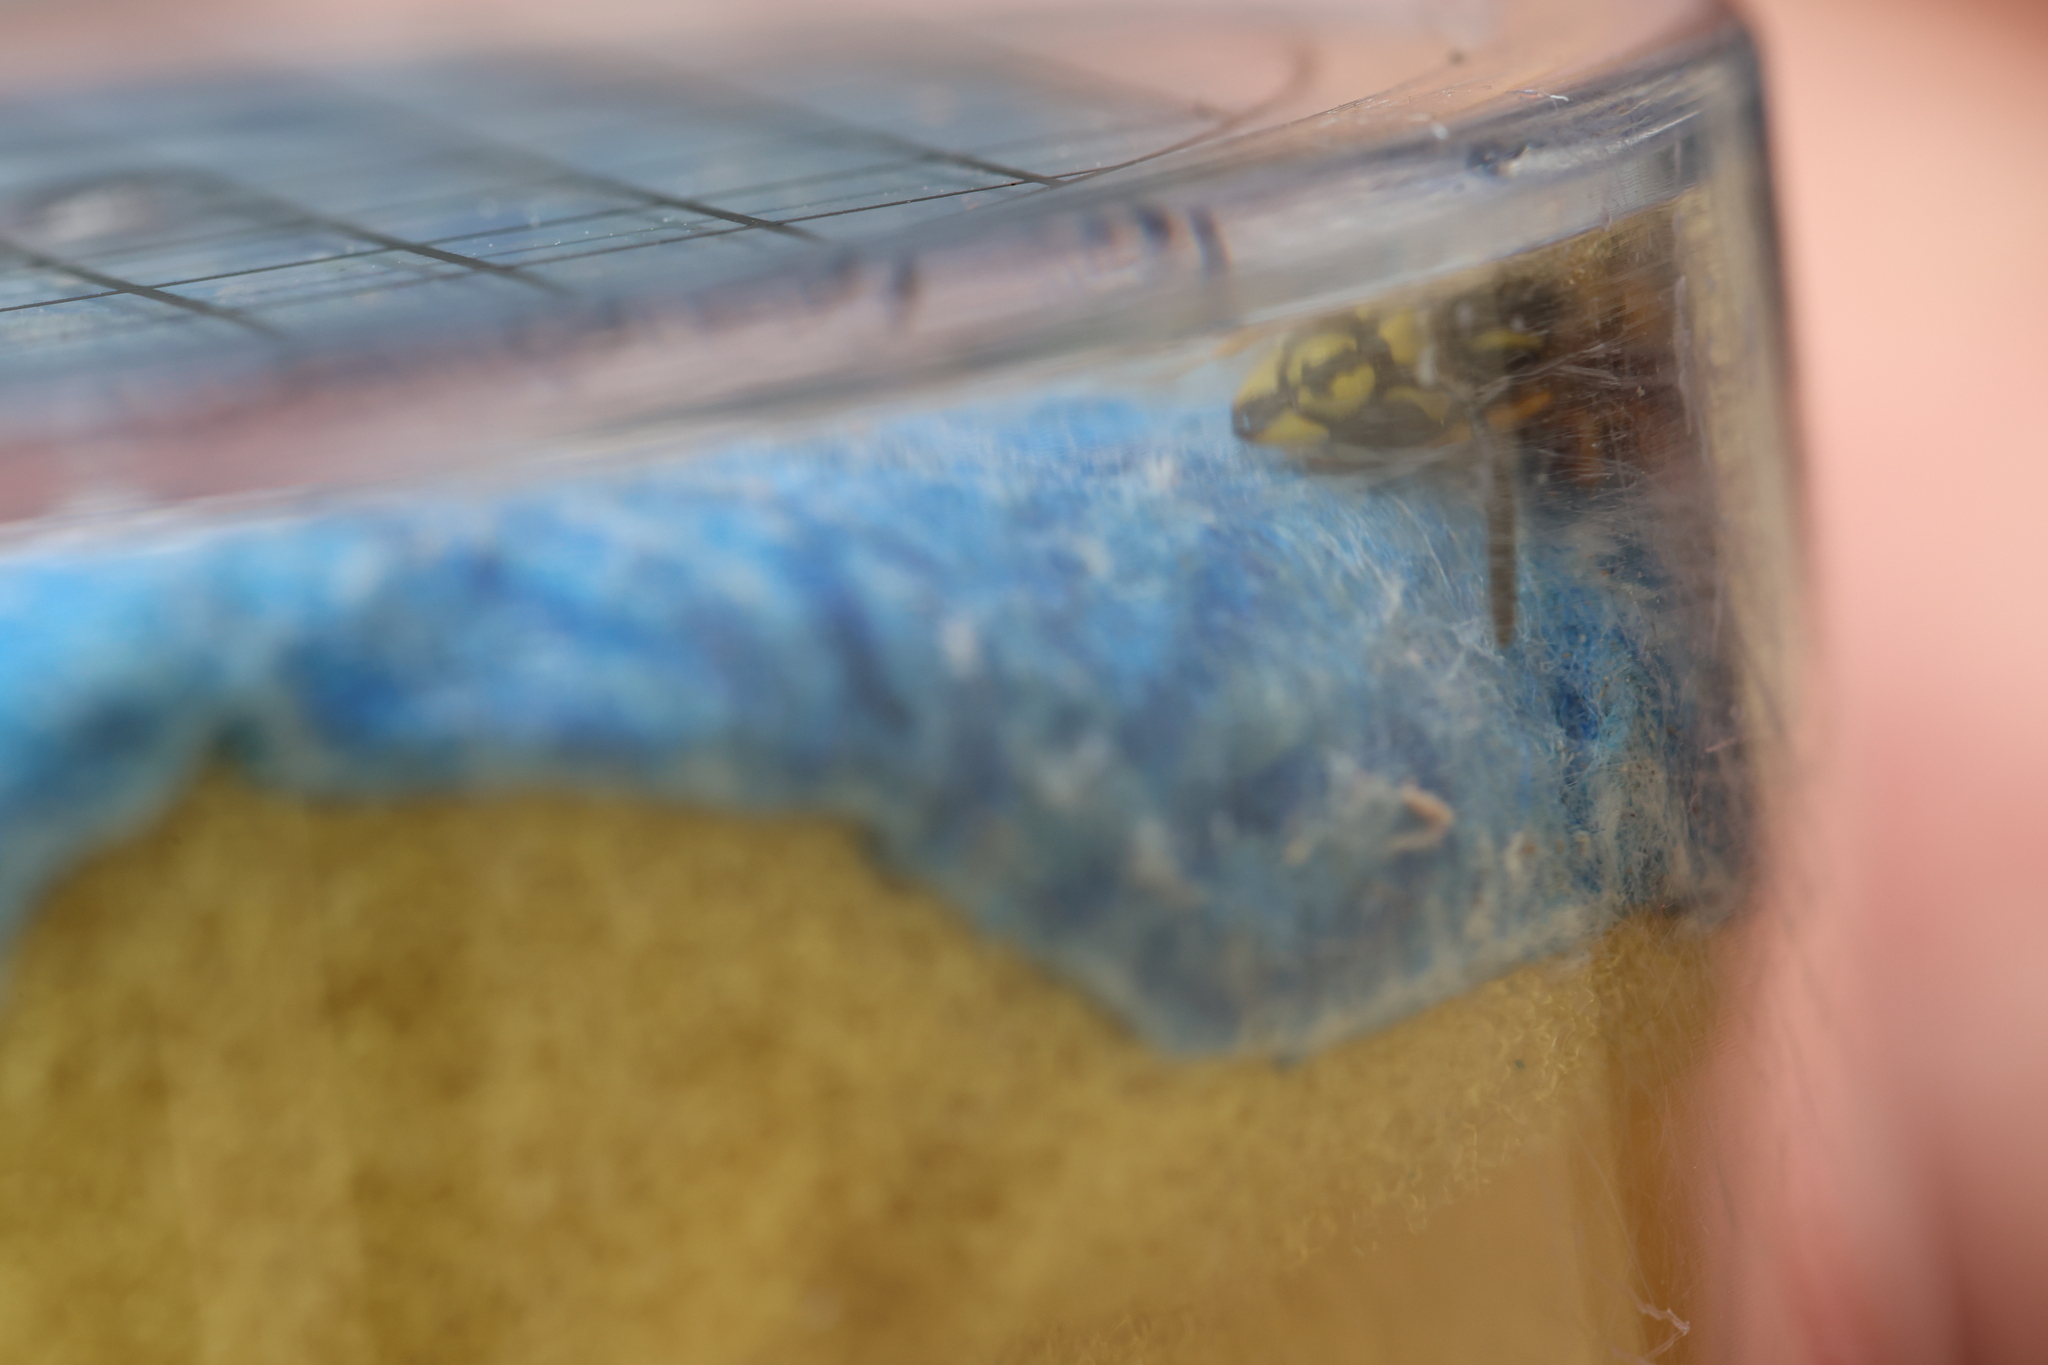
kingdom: Animalia
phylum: Arthropoda
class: Insecta
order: Hymenoptera
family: Vespidae
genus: Vespula
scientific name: Vespula vulgaris
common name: Common wasp
